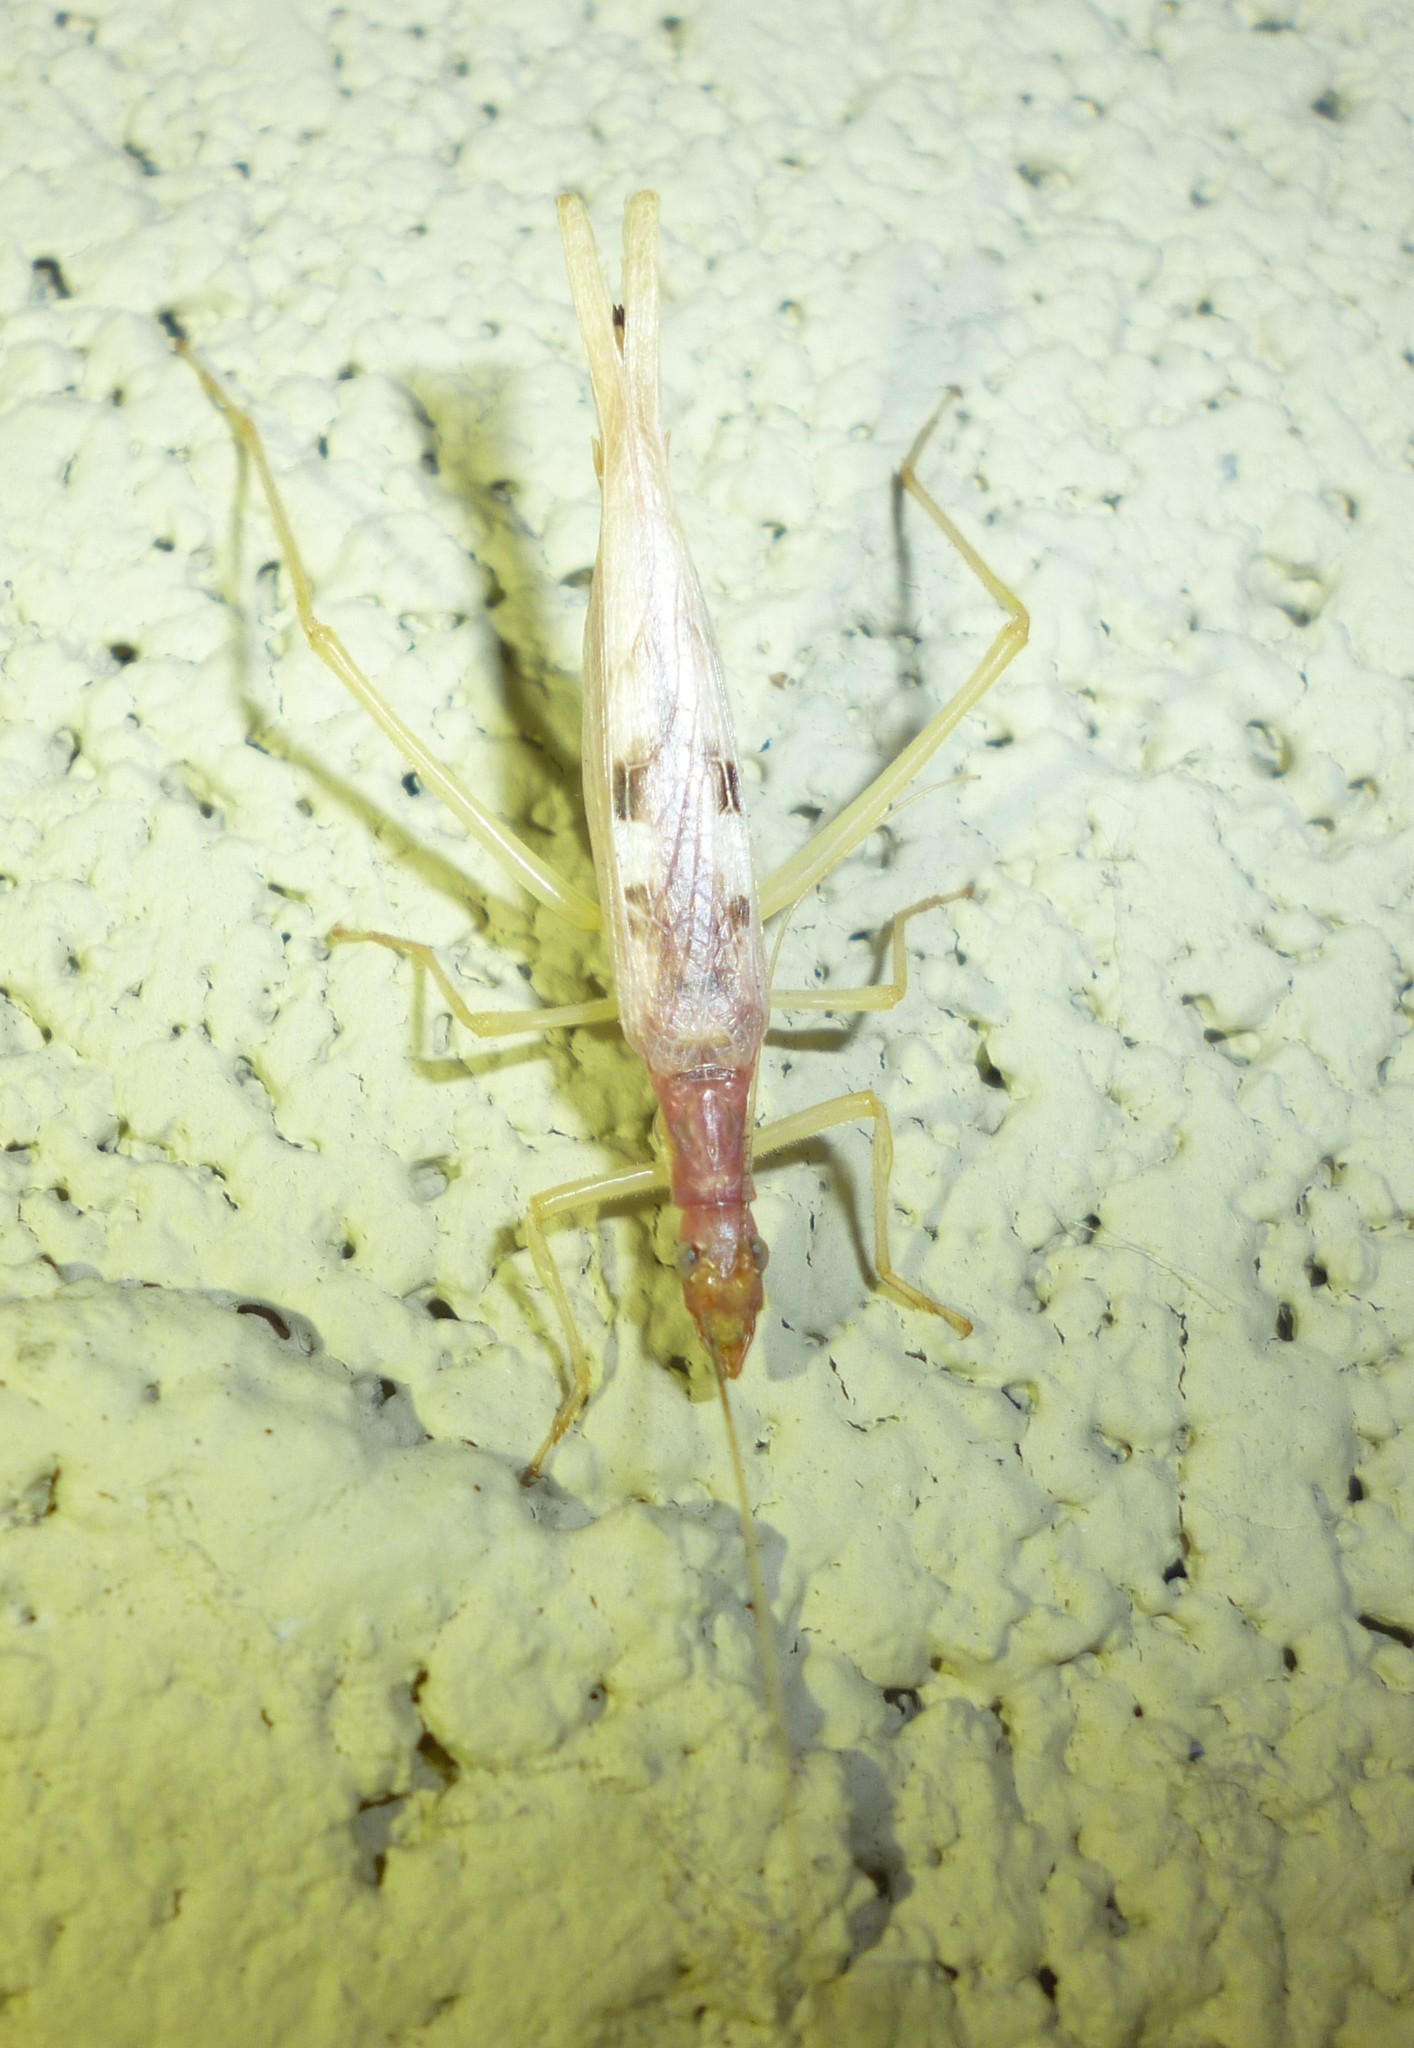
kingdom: Animalia
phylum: Arthropoda
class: Insecta
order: Orthoptera
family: Gryllidae
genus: Neoxabea
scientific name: Neoxabea bipunctata
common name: Two-spotted tree cricket
